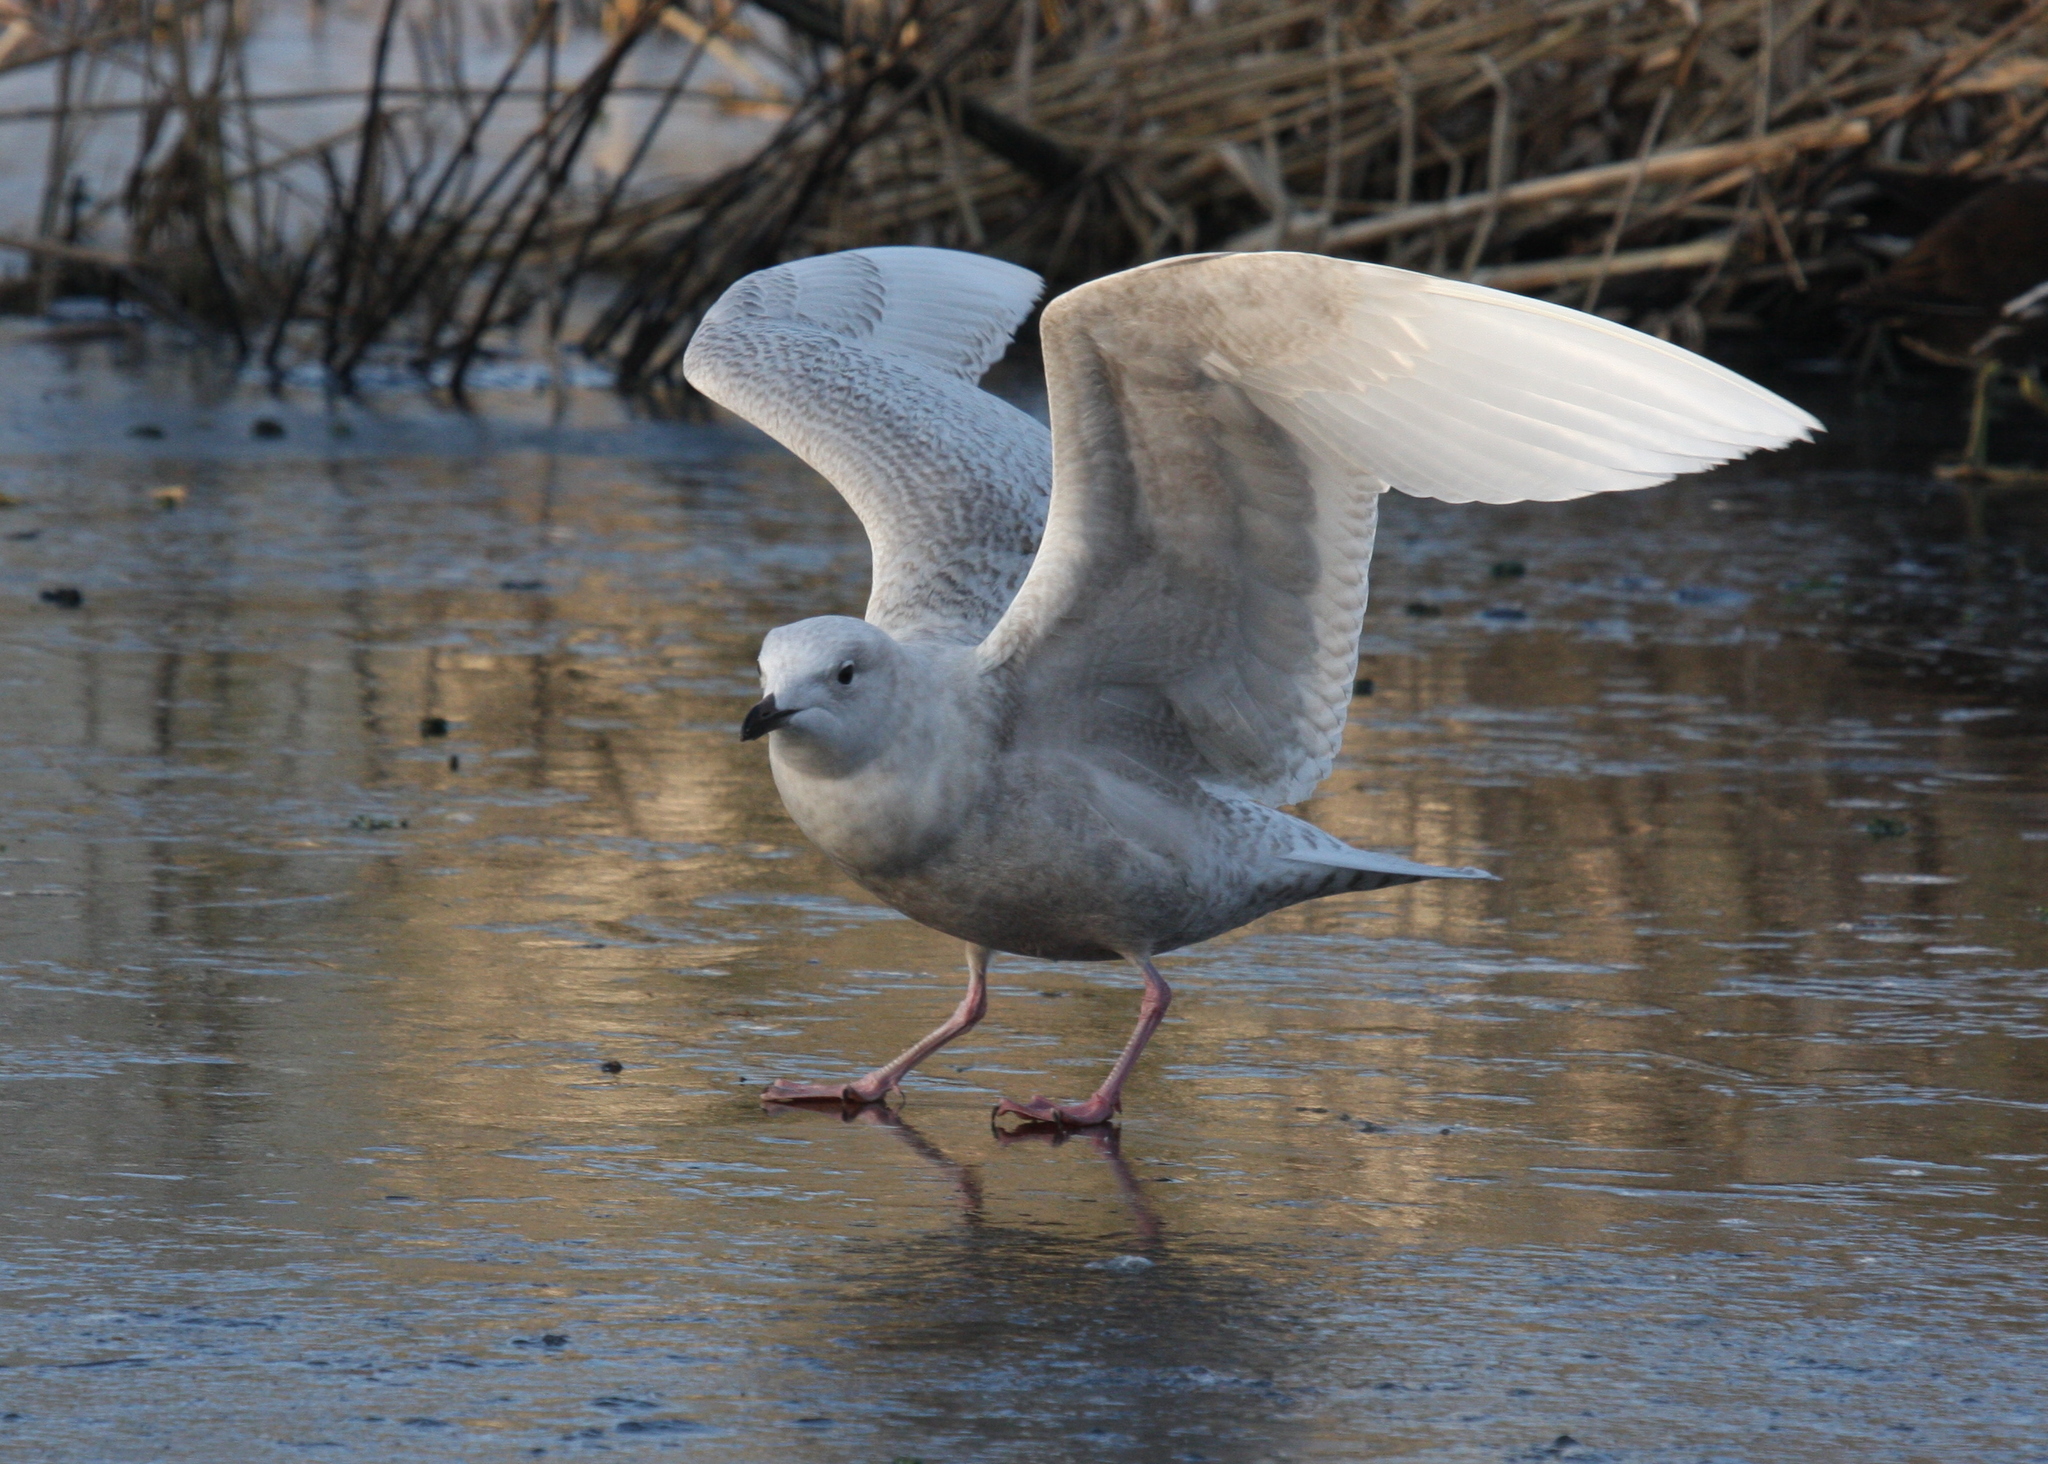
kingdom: Animalia
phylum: Chordata
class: Aves
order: Charadriiformes
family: Laridae
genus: Larus
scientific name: Larus glaucoides
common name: Iceland gull
